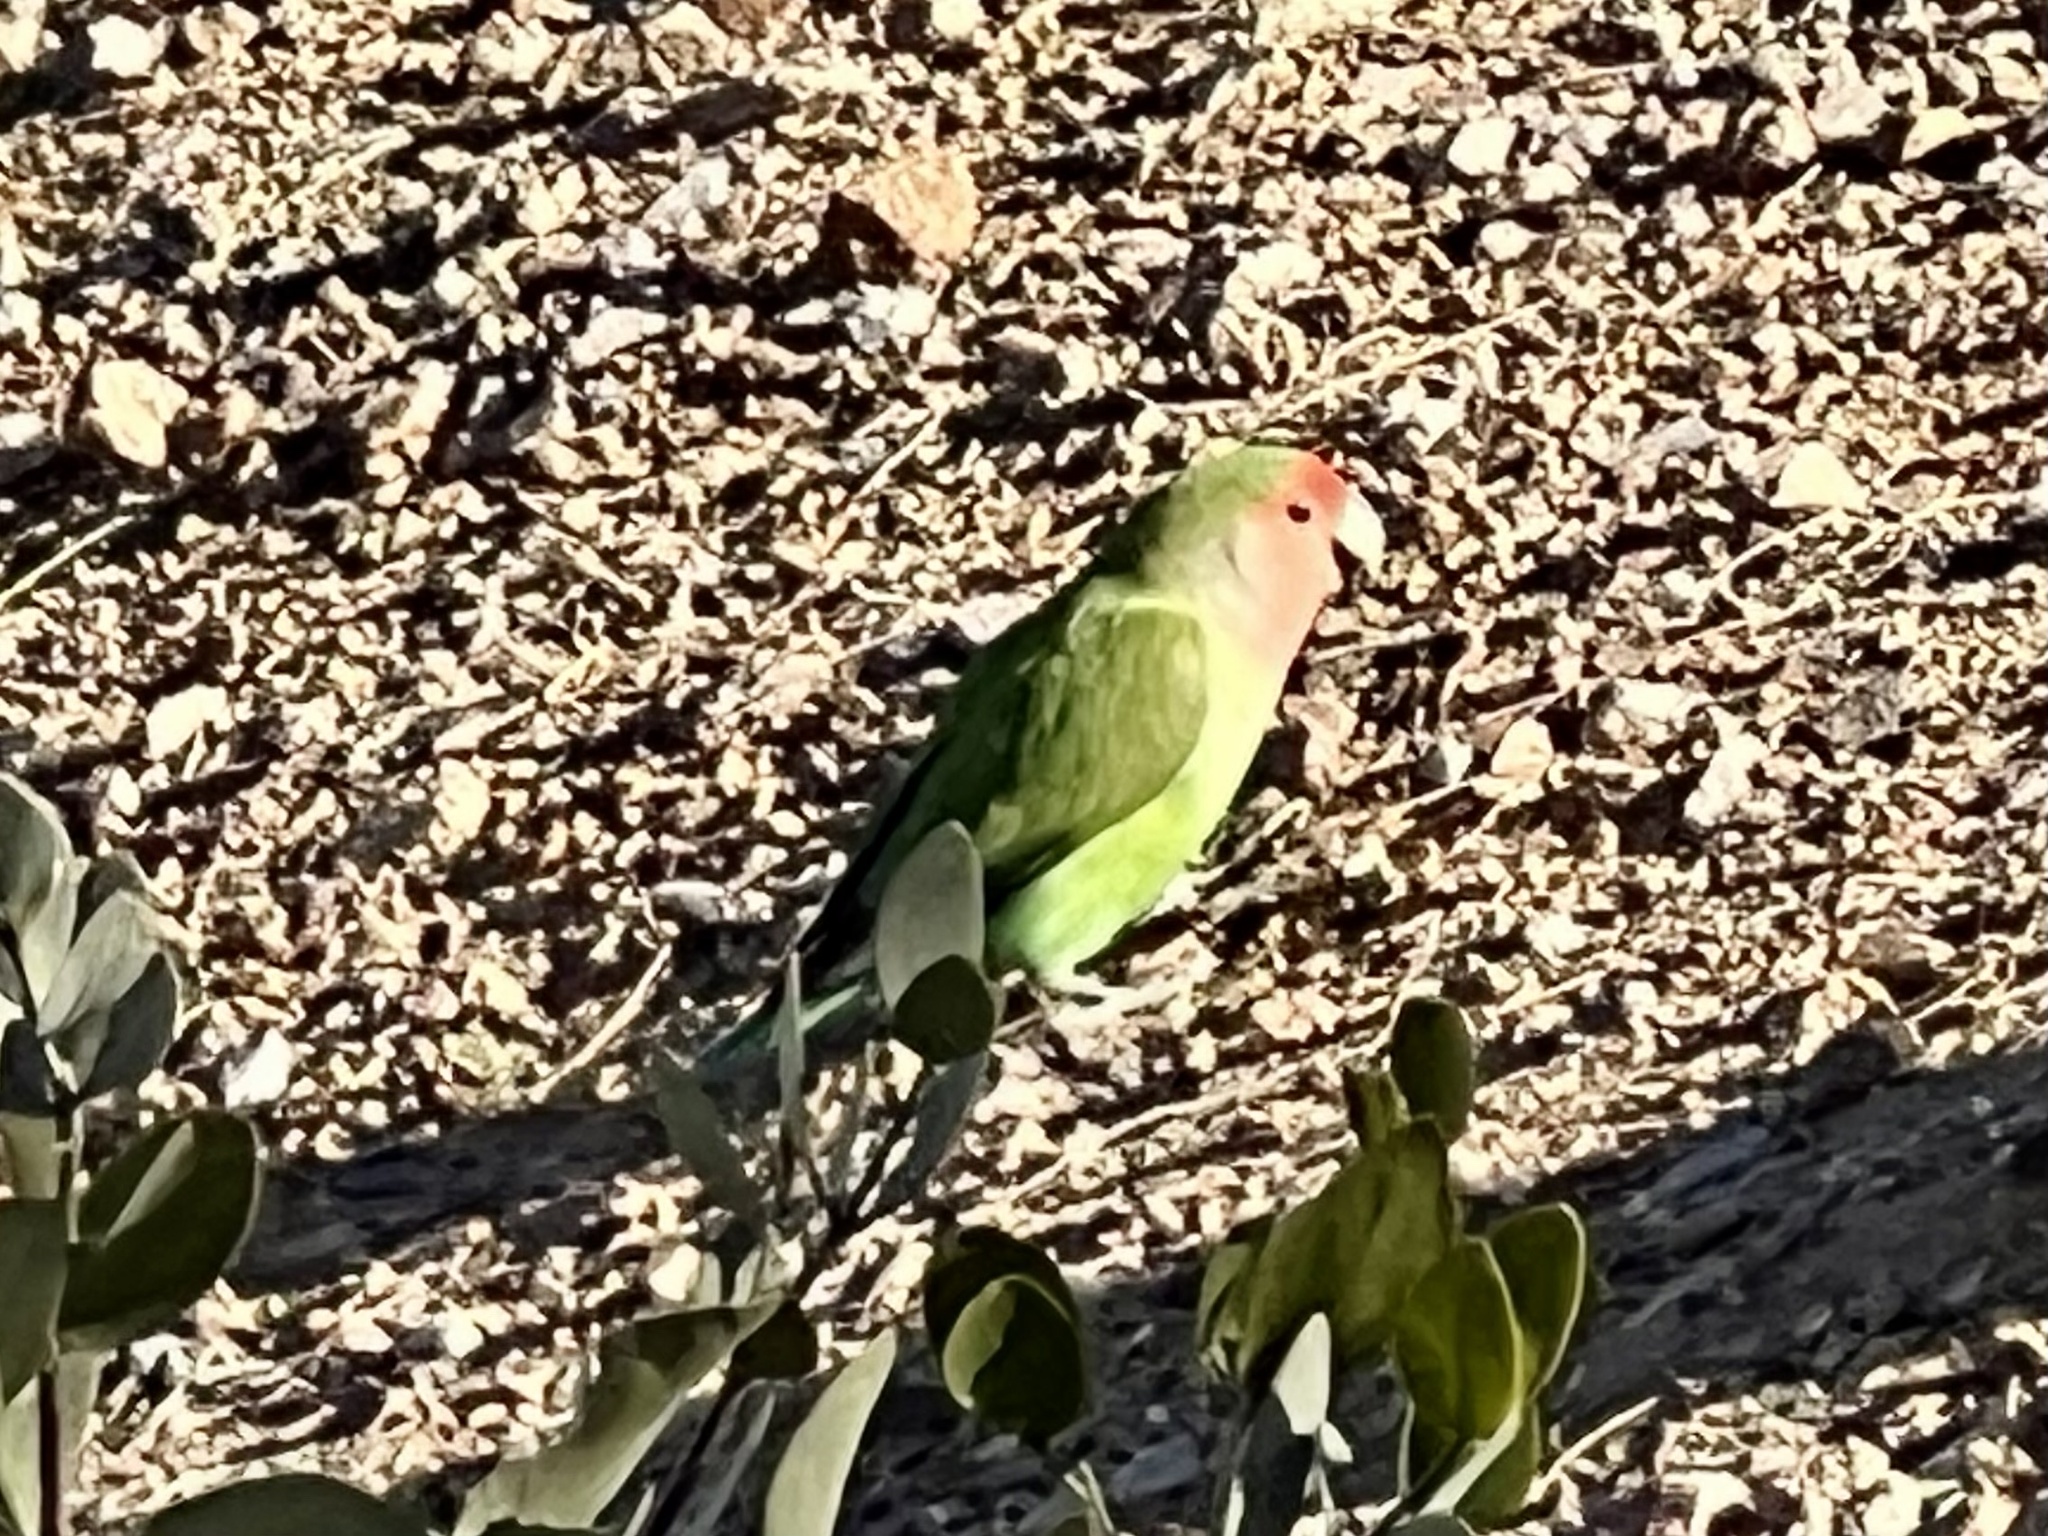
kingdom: Animalia
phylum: Chordata
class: Aves
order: Psittaciformes
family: Psittacidae
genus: Agapornis
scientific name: Agapornis roseicollis
